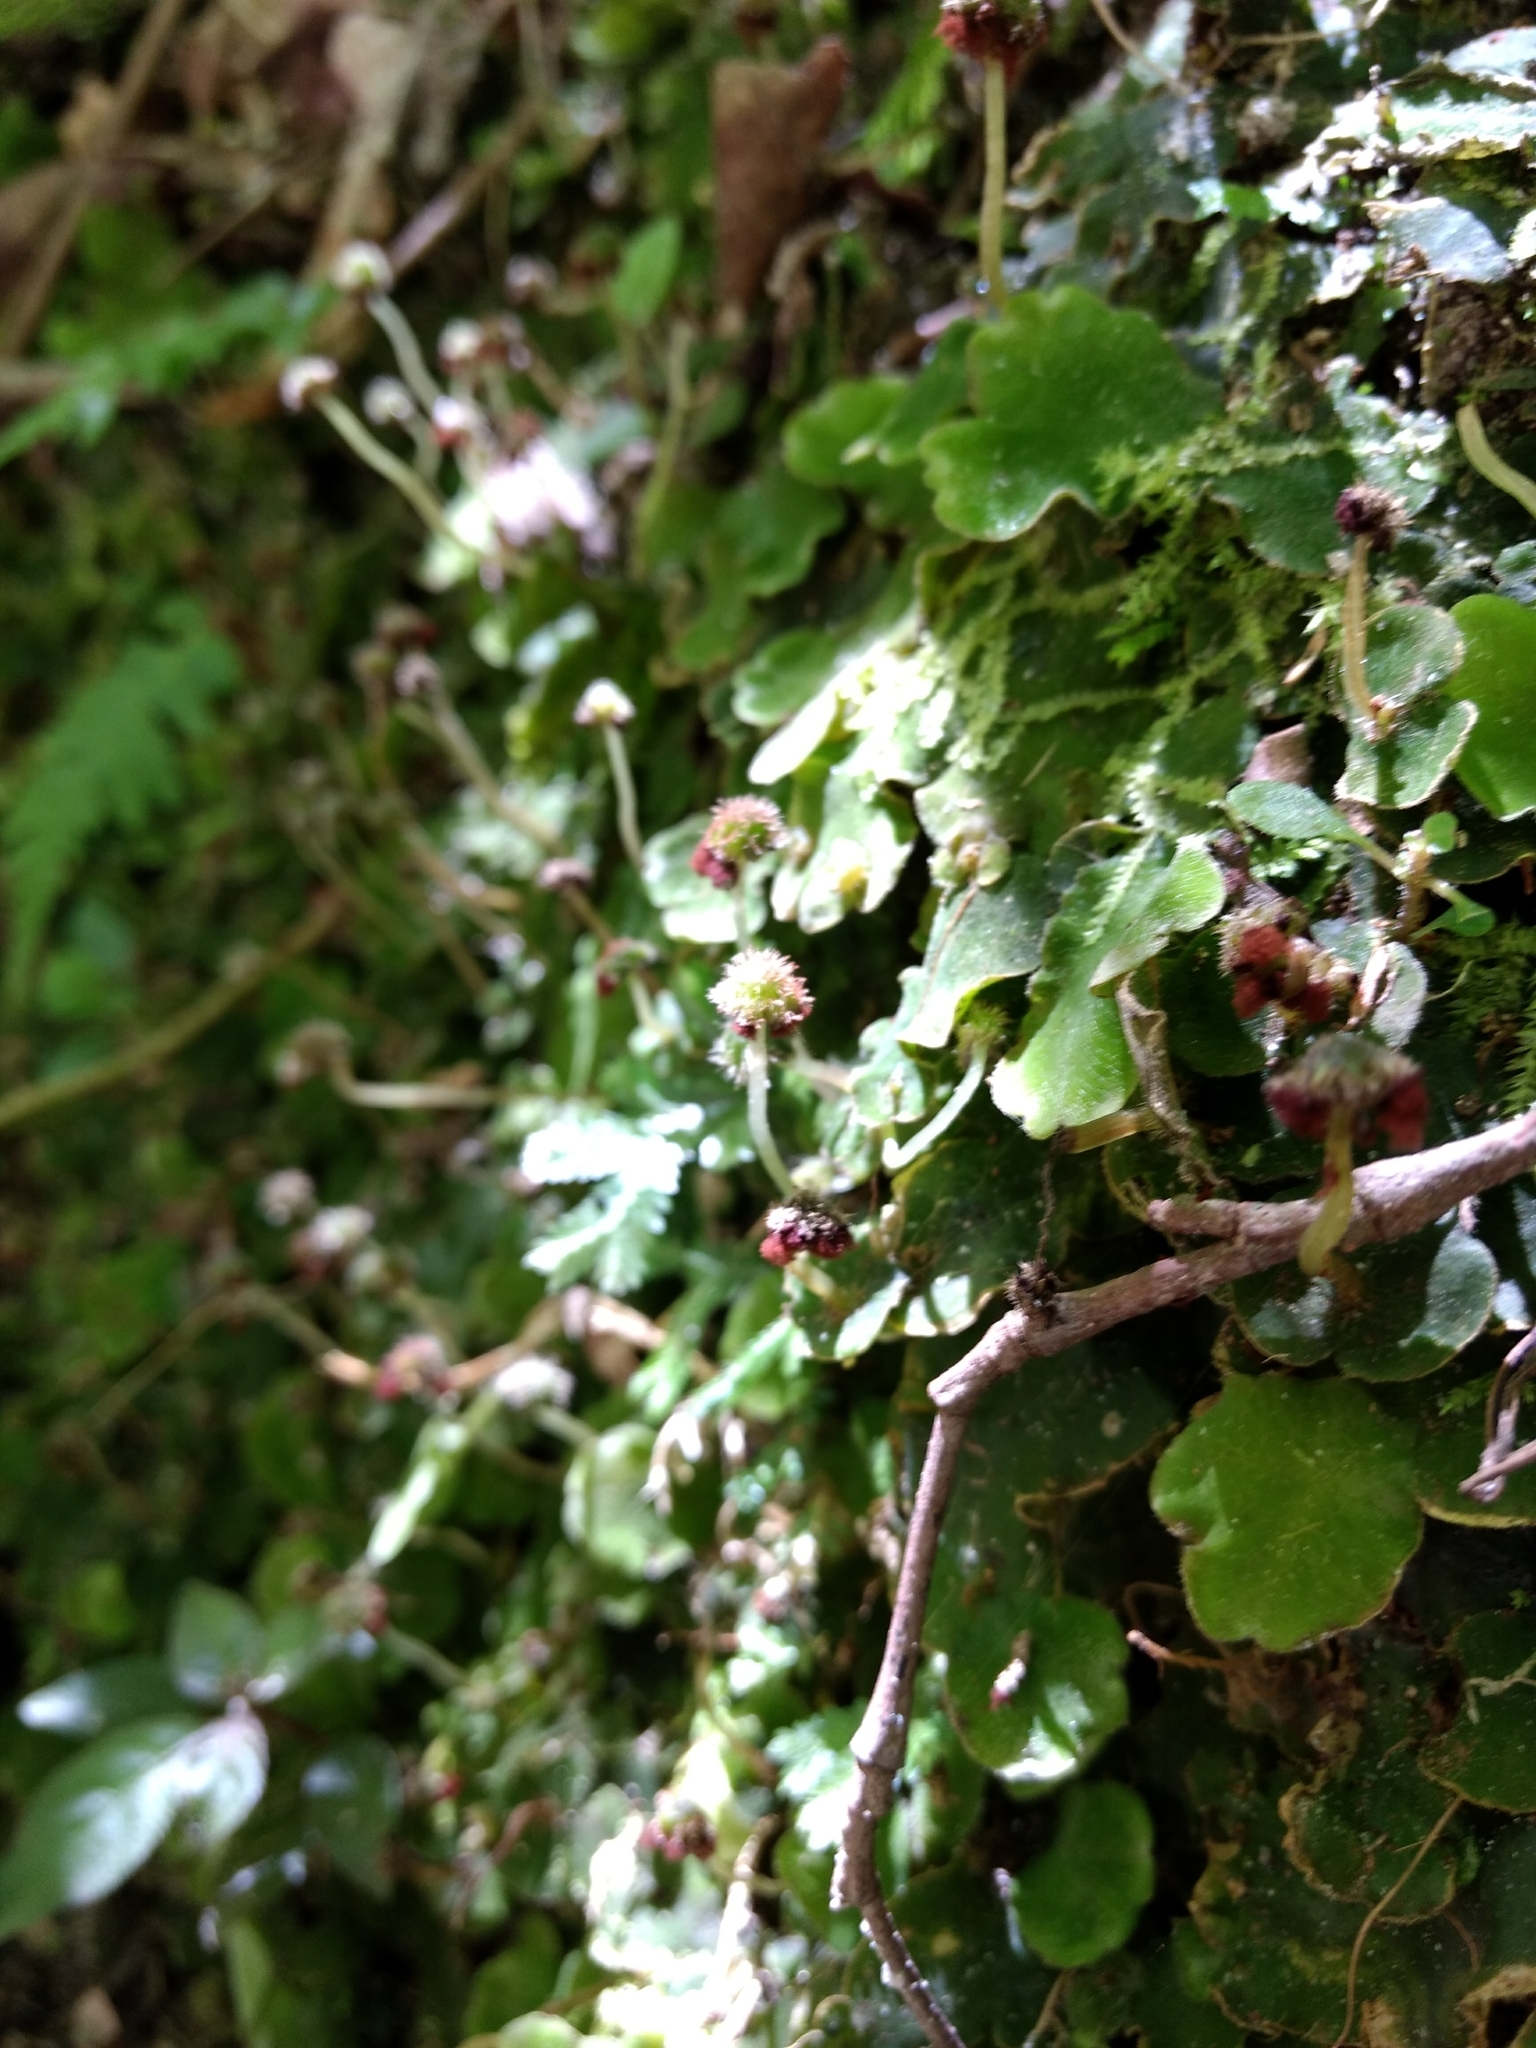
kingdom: Plantae
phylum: Marchantiophyta
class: Marchantiopsida
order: Marchantiales
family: Dumortieraceae
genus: Dumortiera
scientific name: Dumortiera hirsuta
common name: Dumortier's liverwort
